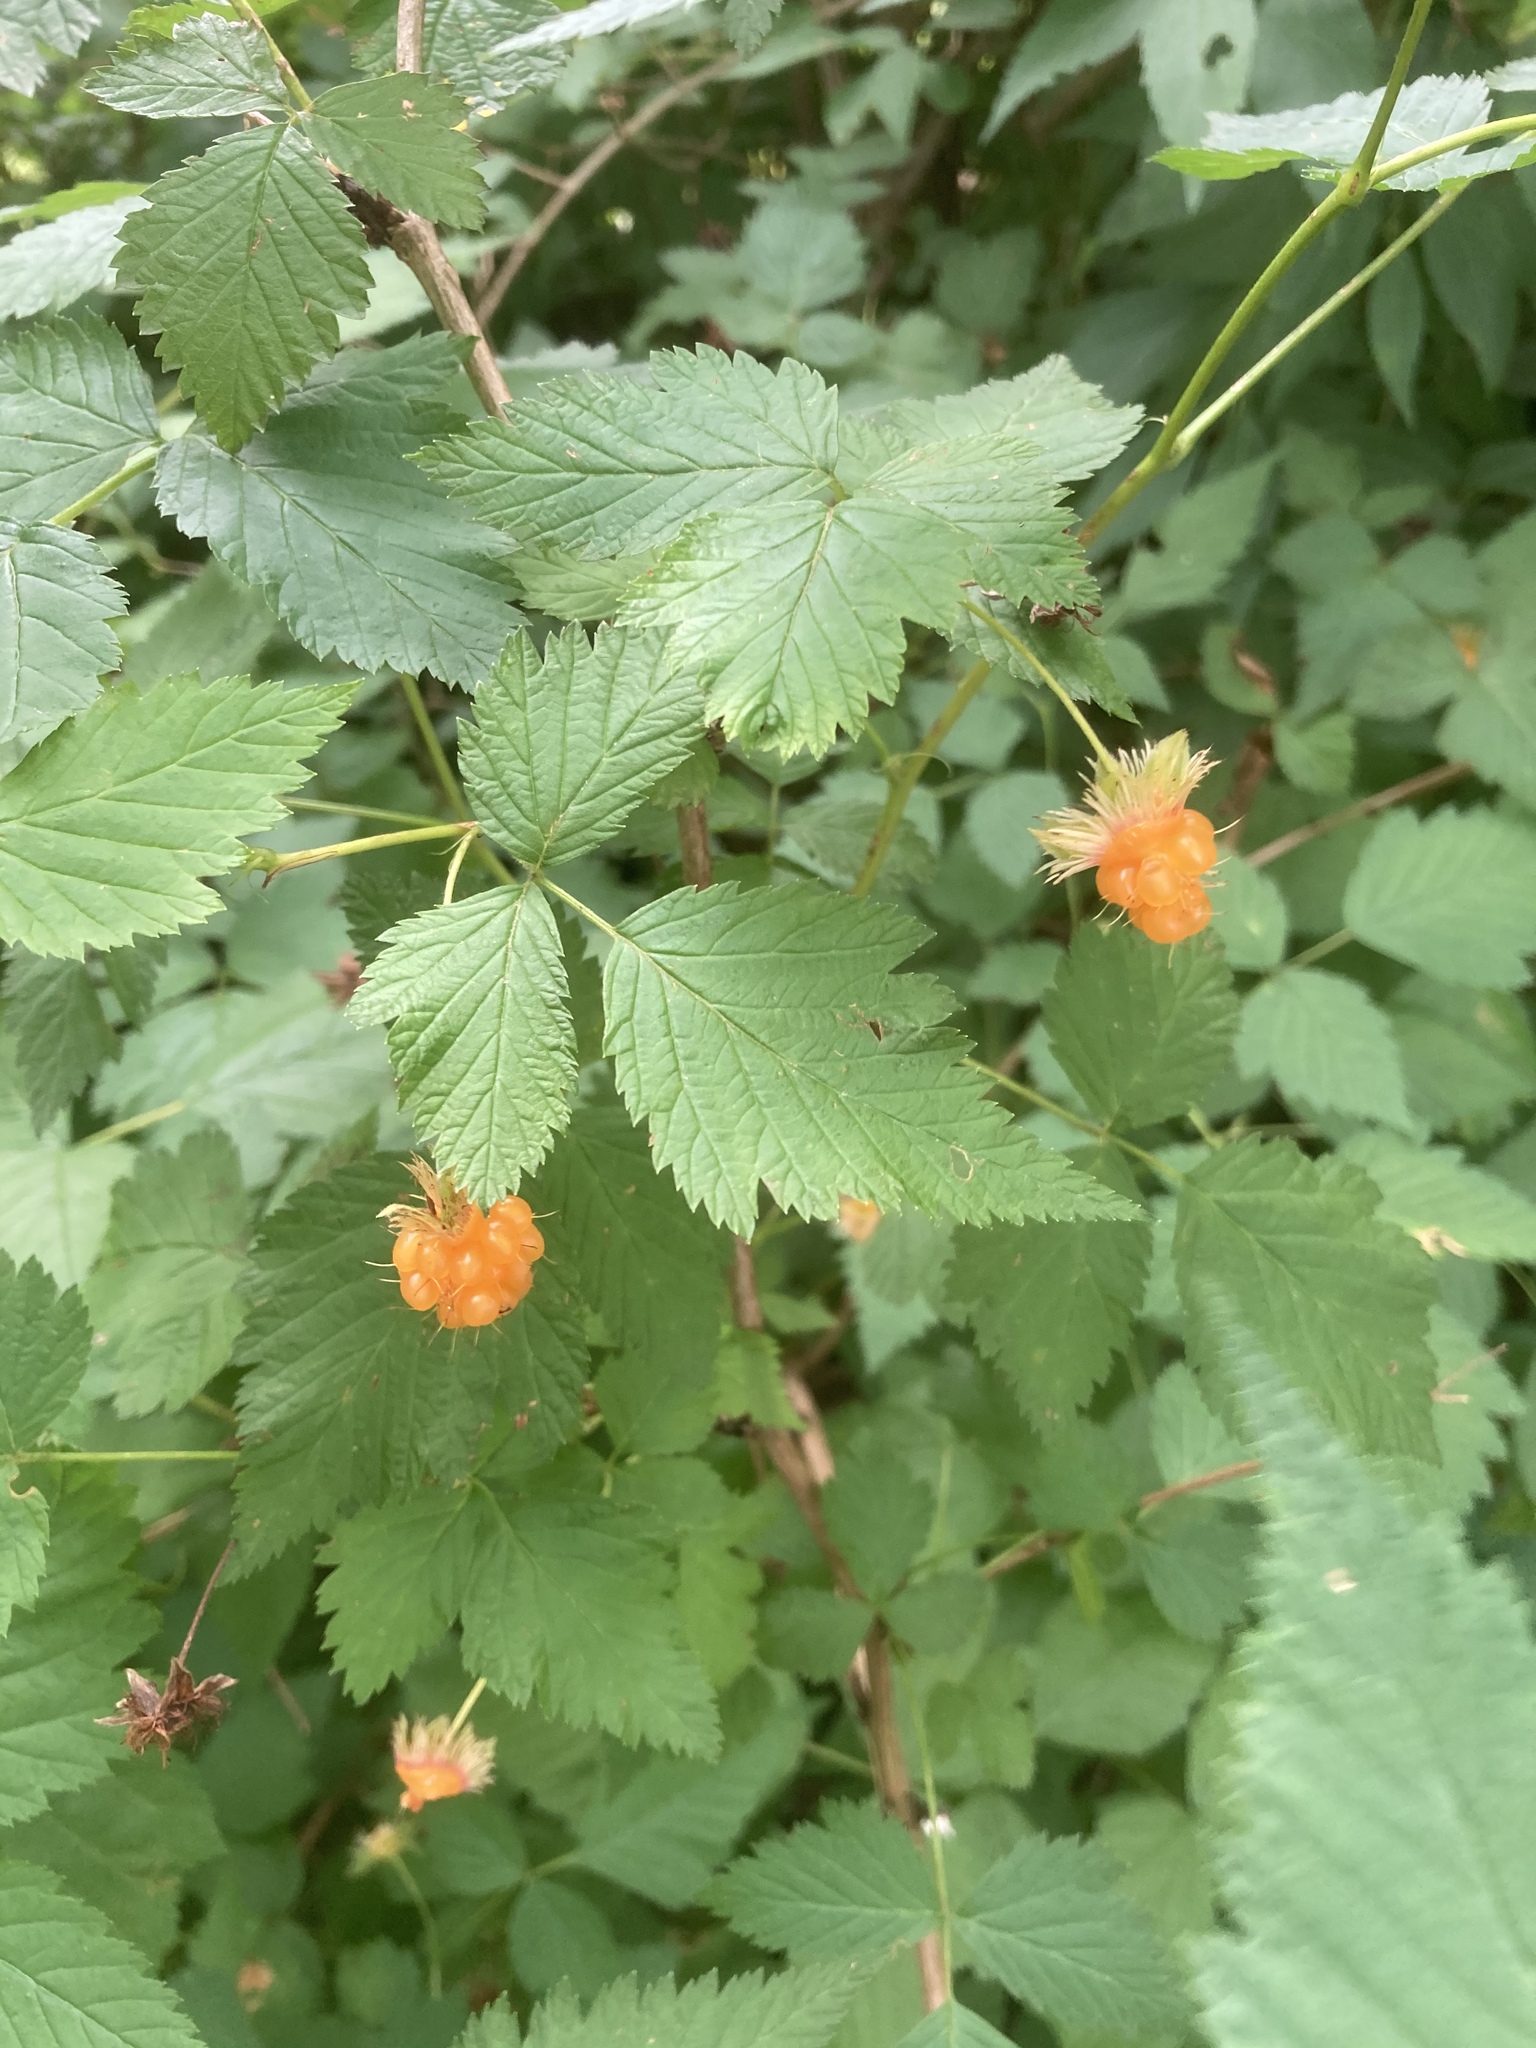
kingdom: Plantae
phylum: Tracheophyta
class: Magnoliopsida
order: Rosales
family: Rosaceae
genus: Rubus
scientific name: Rubus spectabilis
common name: Salmonberry
